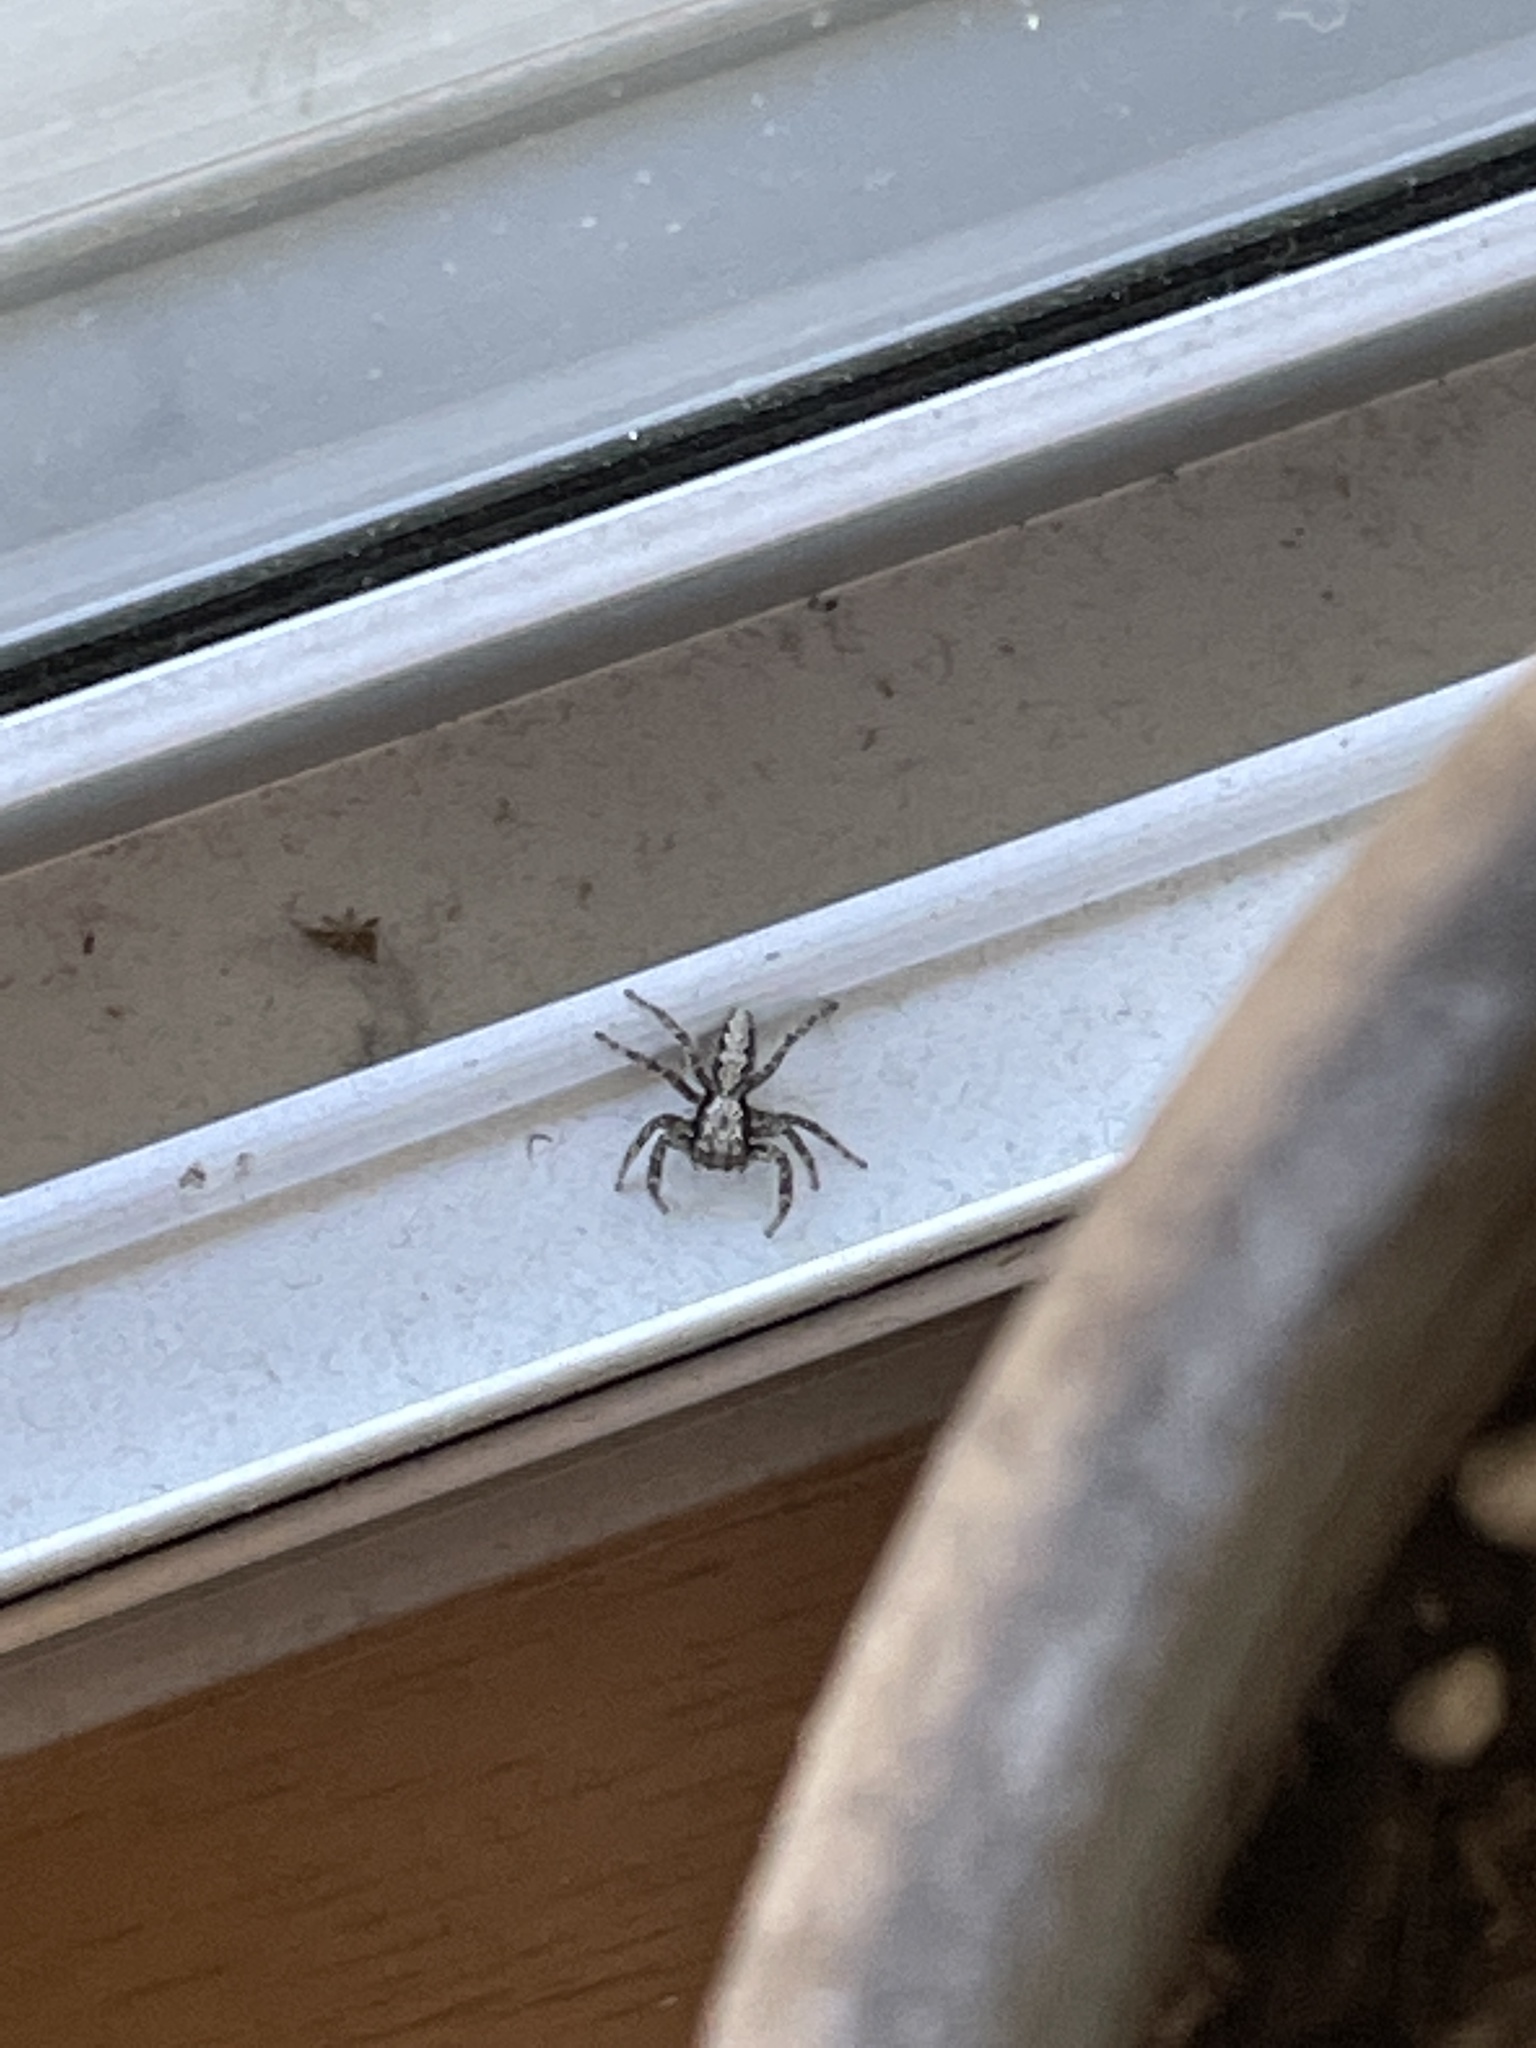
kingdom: Animalia
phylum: Arthropoda
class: Arachnida
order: Araneae
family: Salticidae
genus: Platycryptus
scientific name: Platycryptus californicus
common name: Jumping spiders
